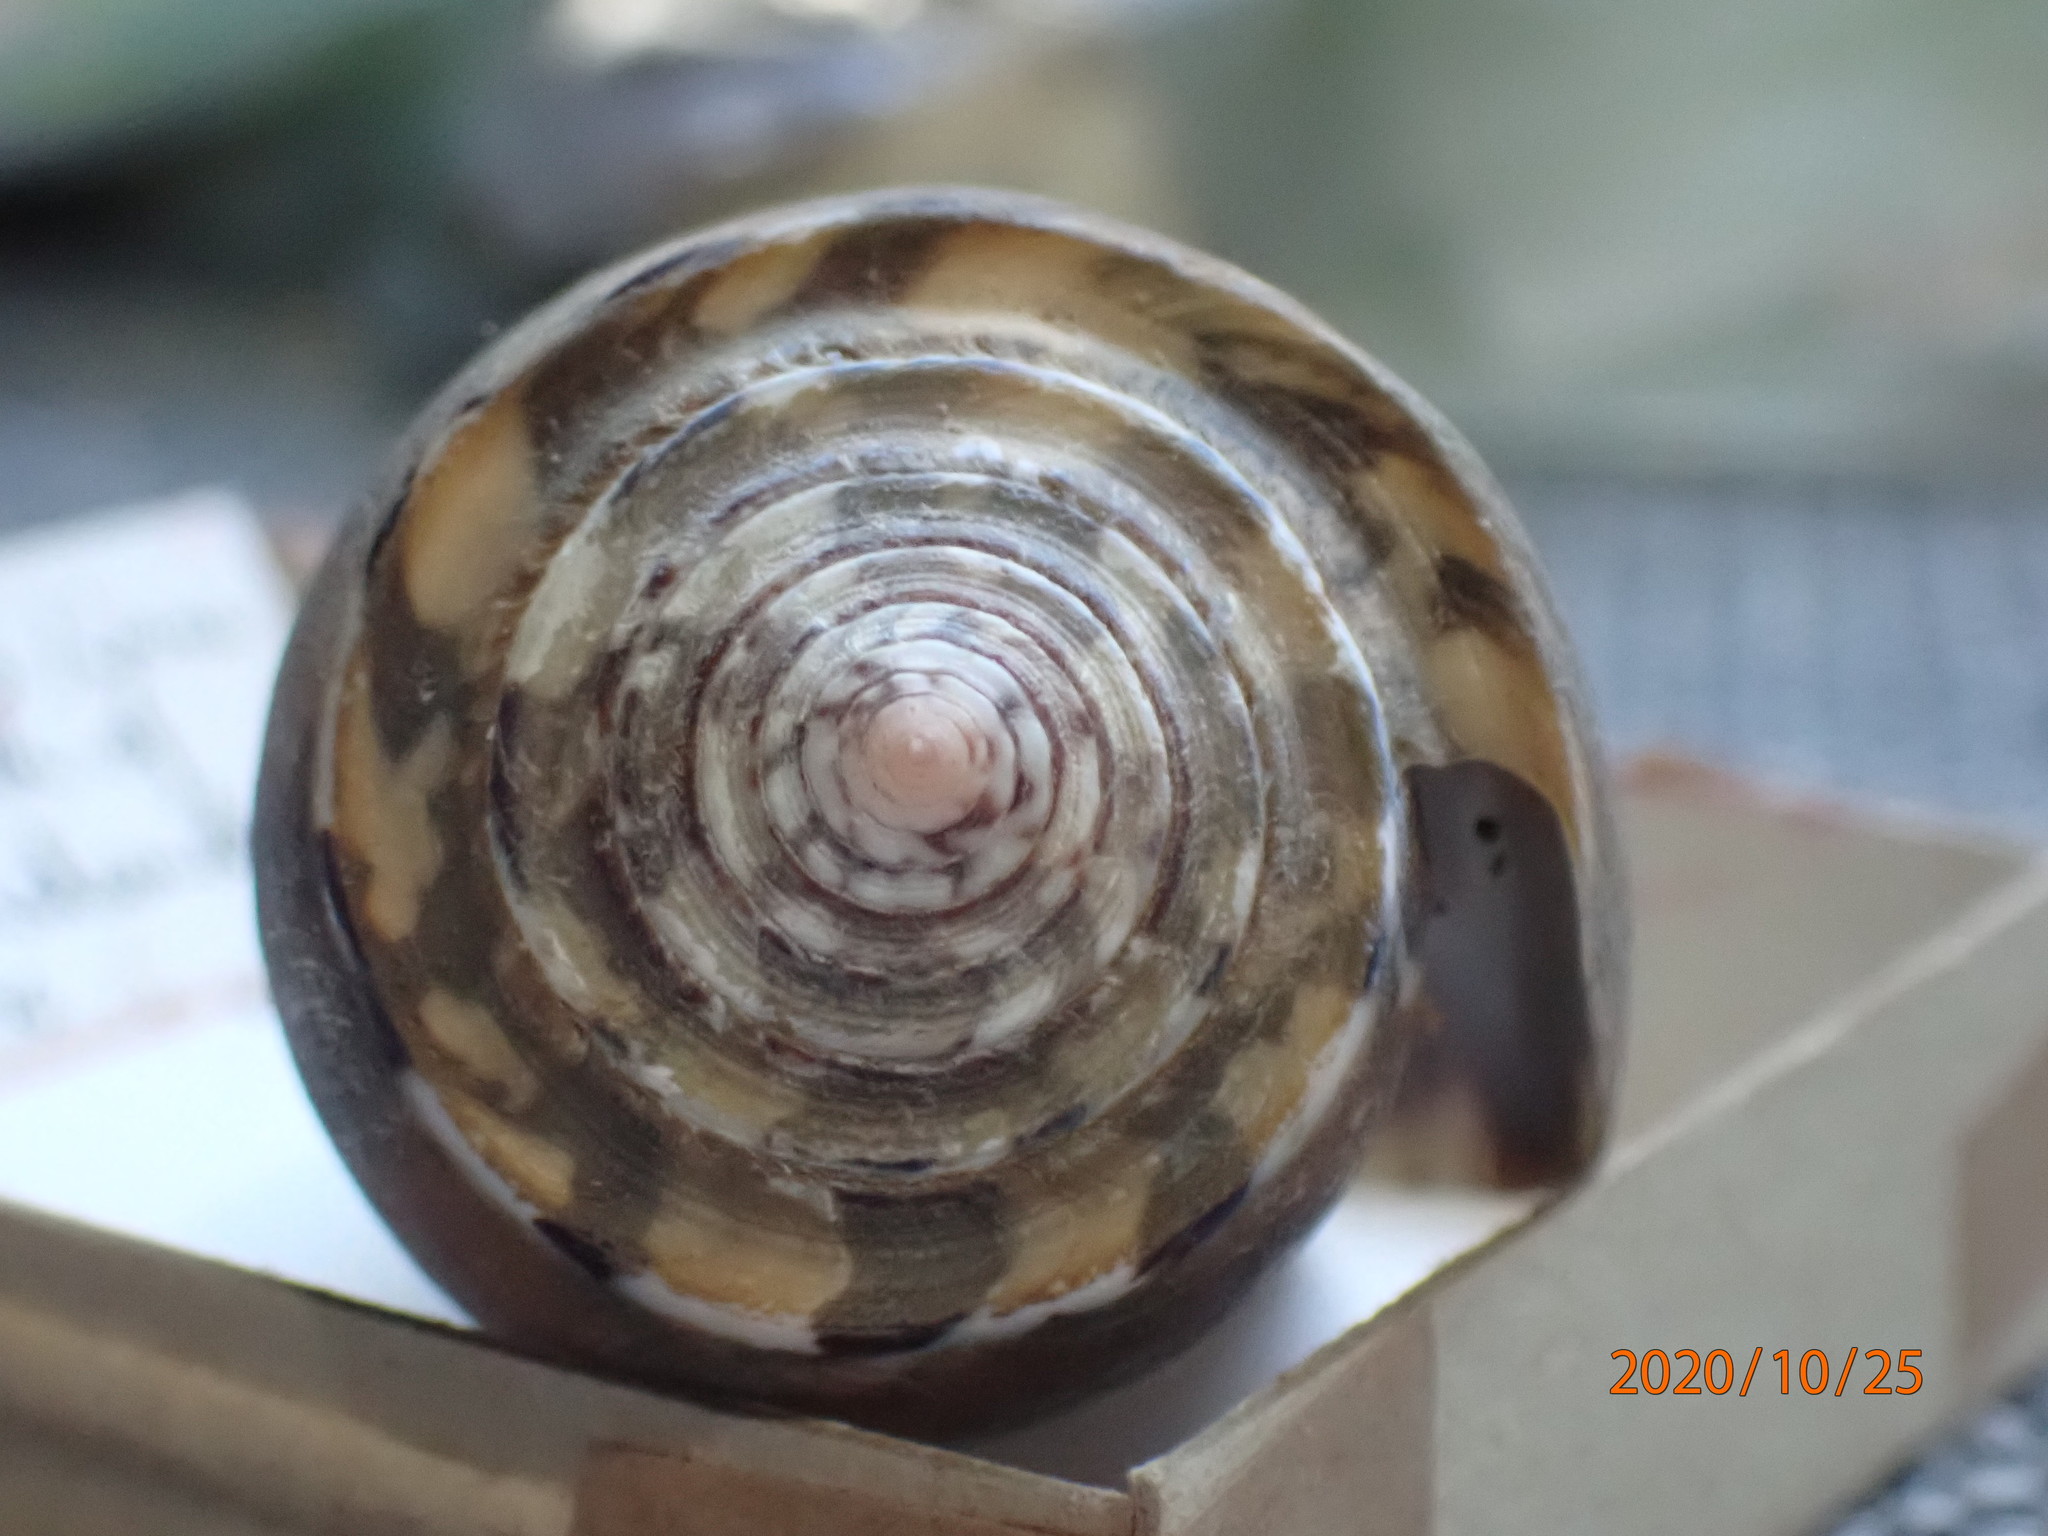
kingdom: Animalia
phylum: Mollusca
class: Gastropoda
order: Neogastropoda
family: Conidae
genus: Conus
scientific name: Conus striatus
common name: Striated cone
